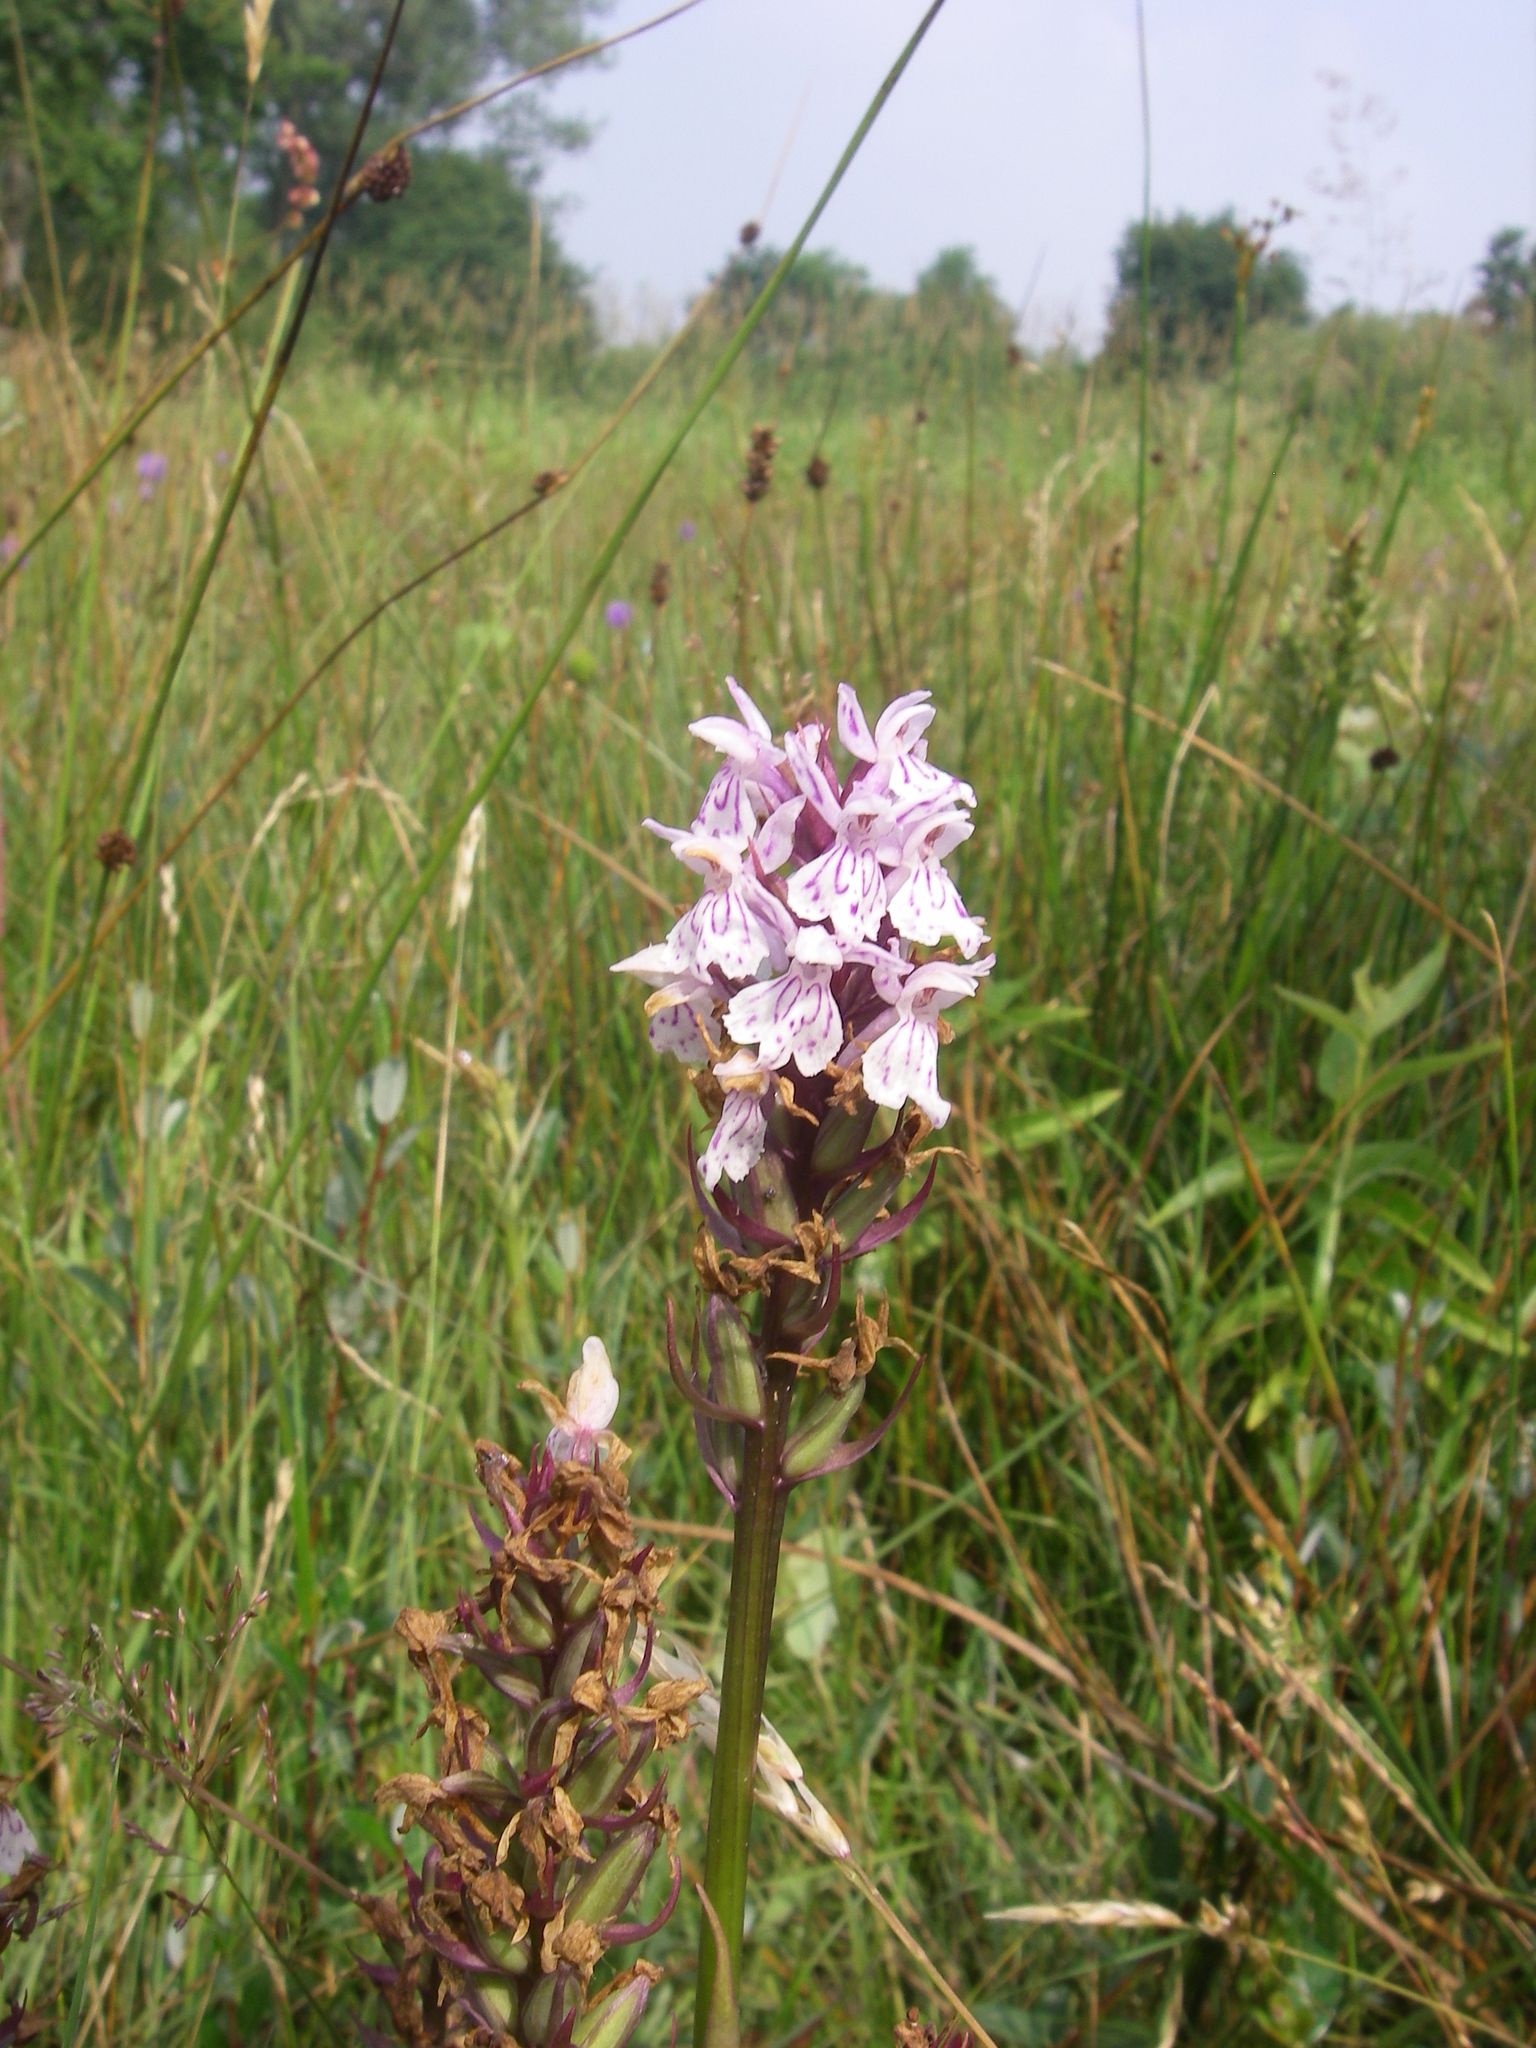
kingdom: Plantae
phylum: Tracheophyta
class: Liliopsida
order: Asparagales
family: Orchidaceae
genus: Dactylorhiza
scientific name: Dactylorhiza maculata
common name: Heath spotted-orchid
